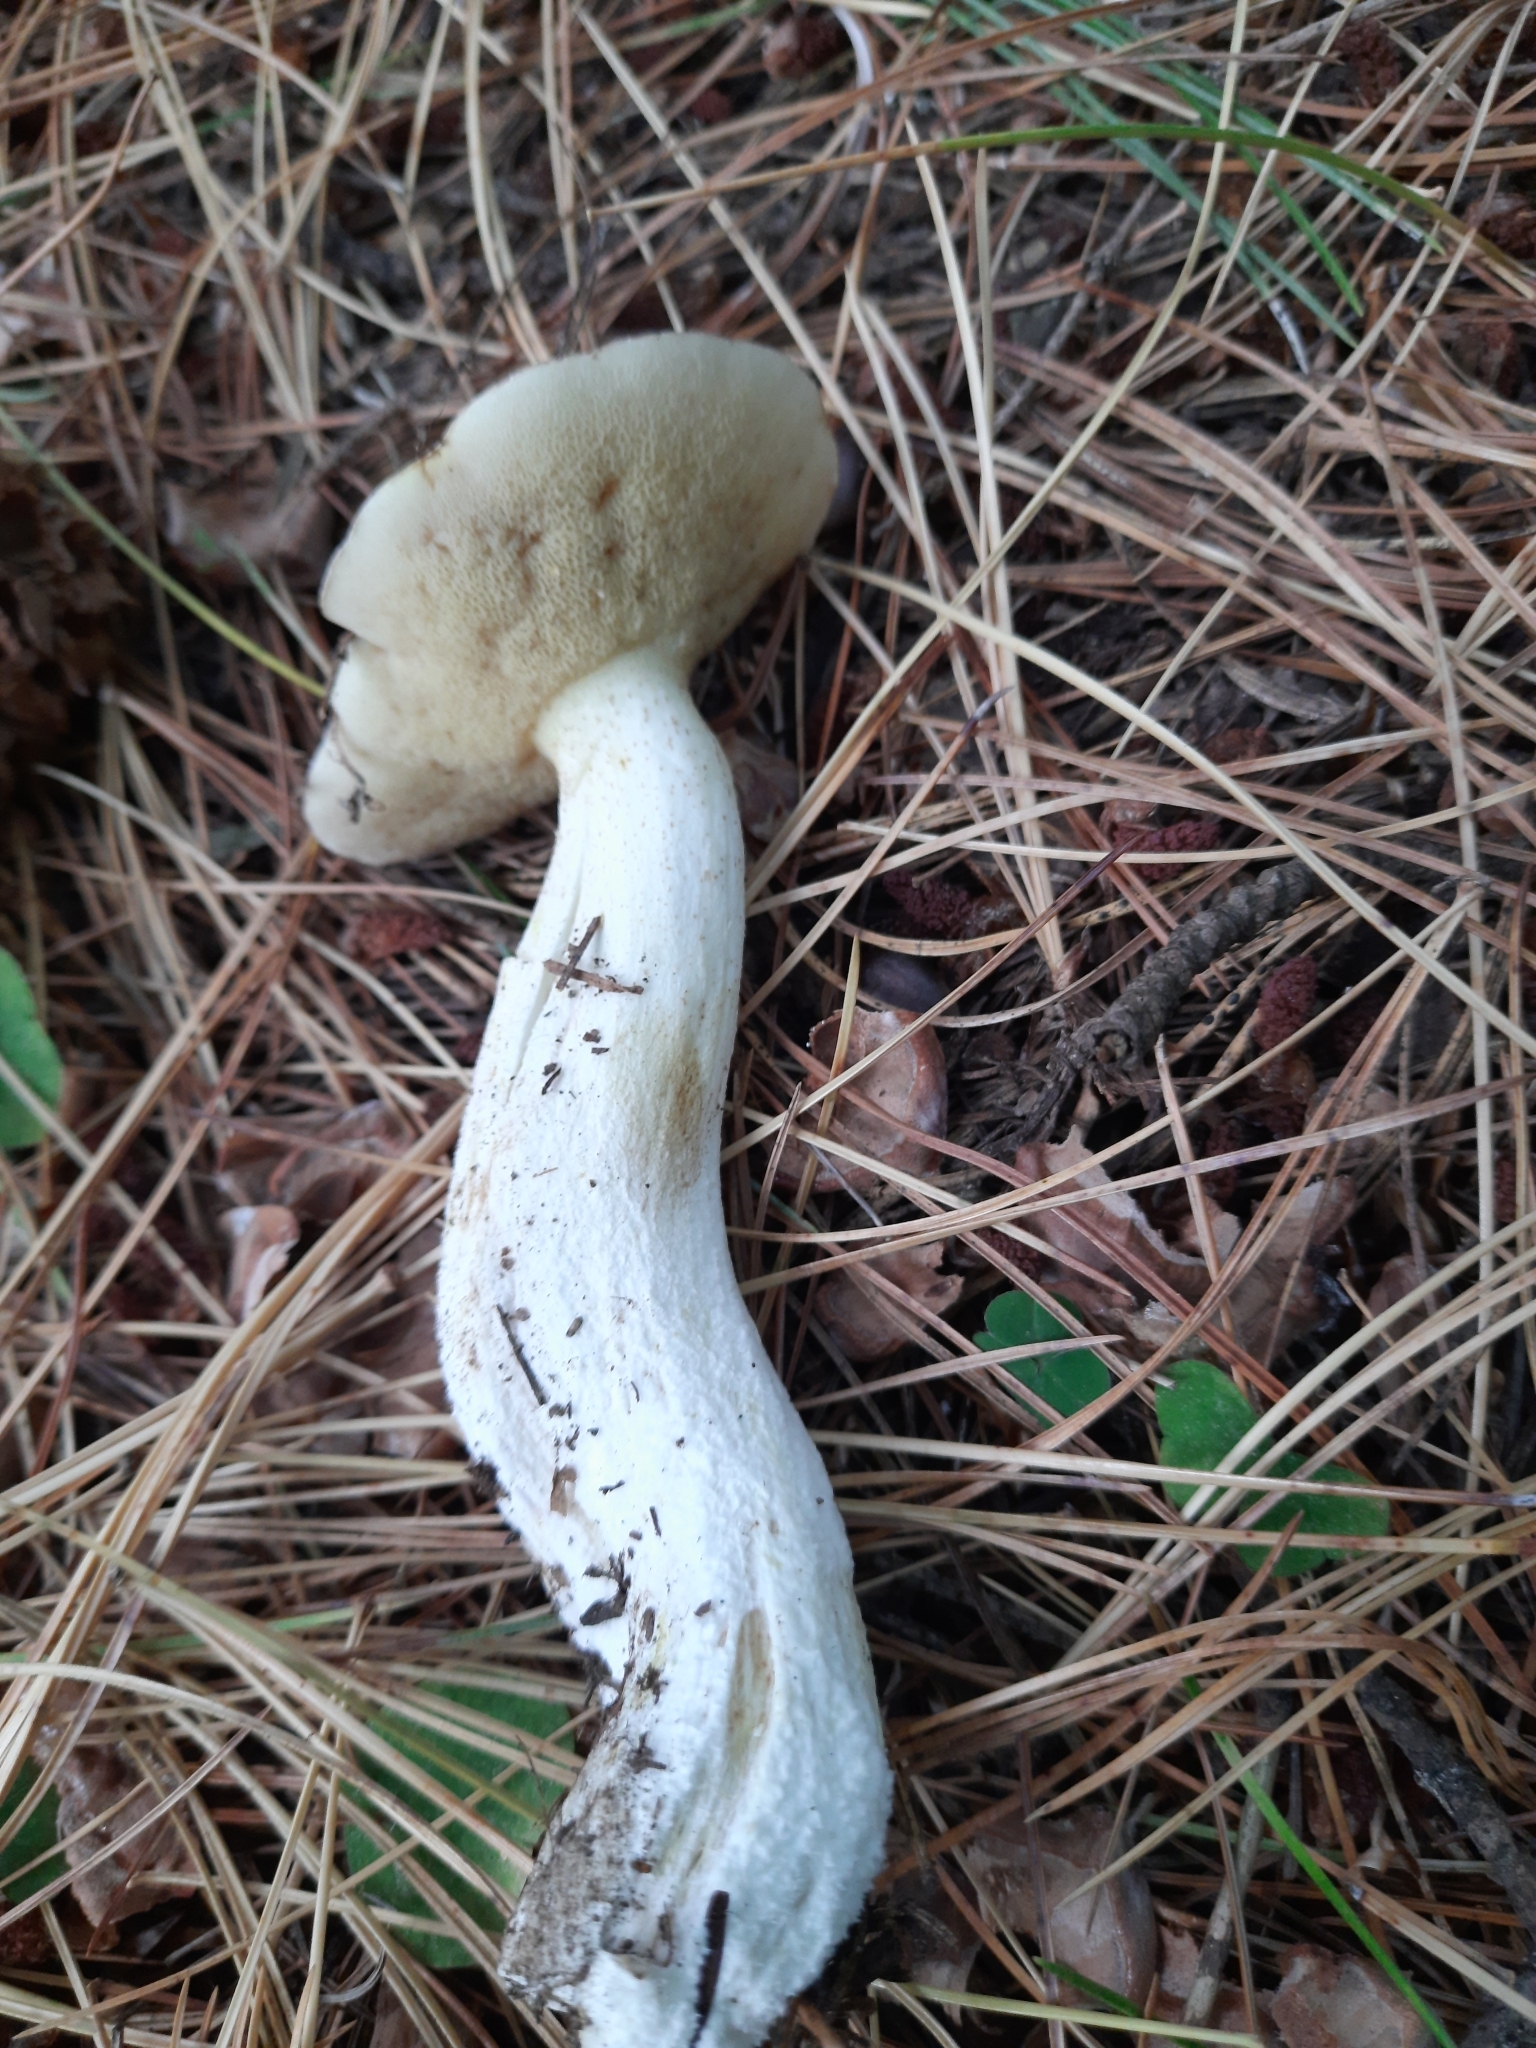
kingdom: Fungi
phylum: Basidiomycota
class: Agaricomycetes
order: Boletales
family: Suillaceae
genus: Suillus
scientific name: Suillus placidus
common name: Slippery white bolete
